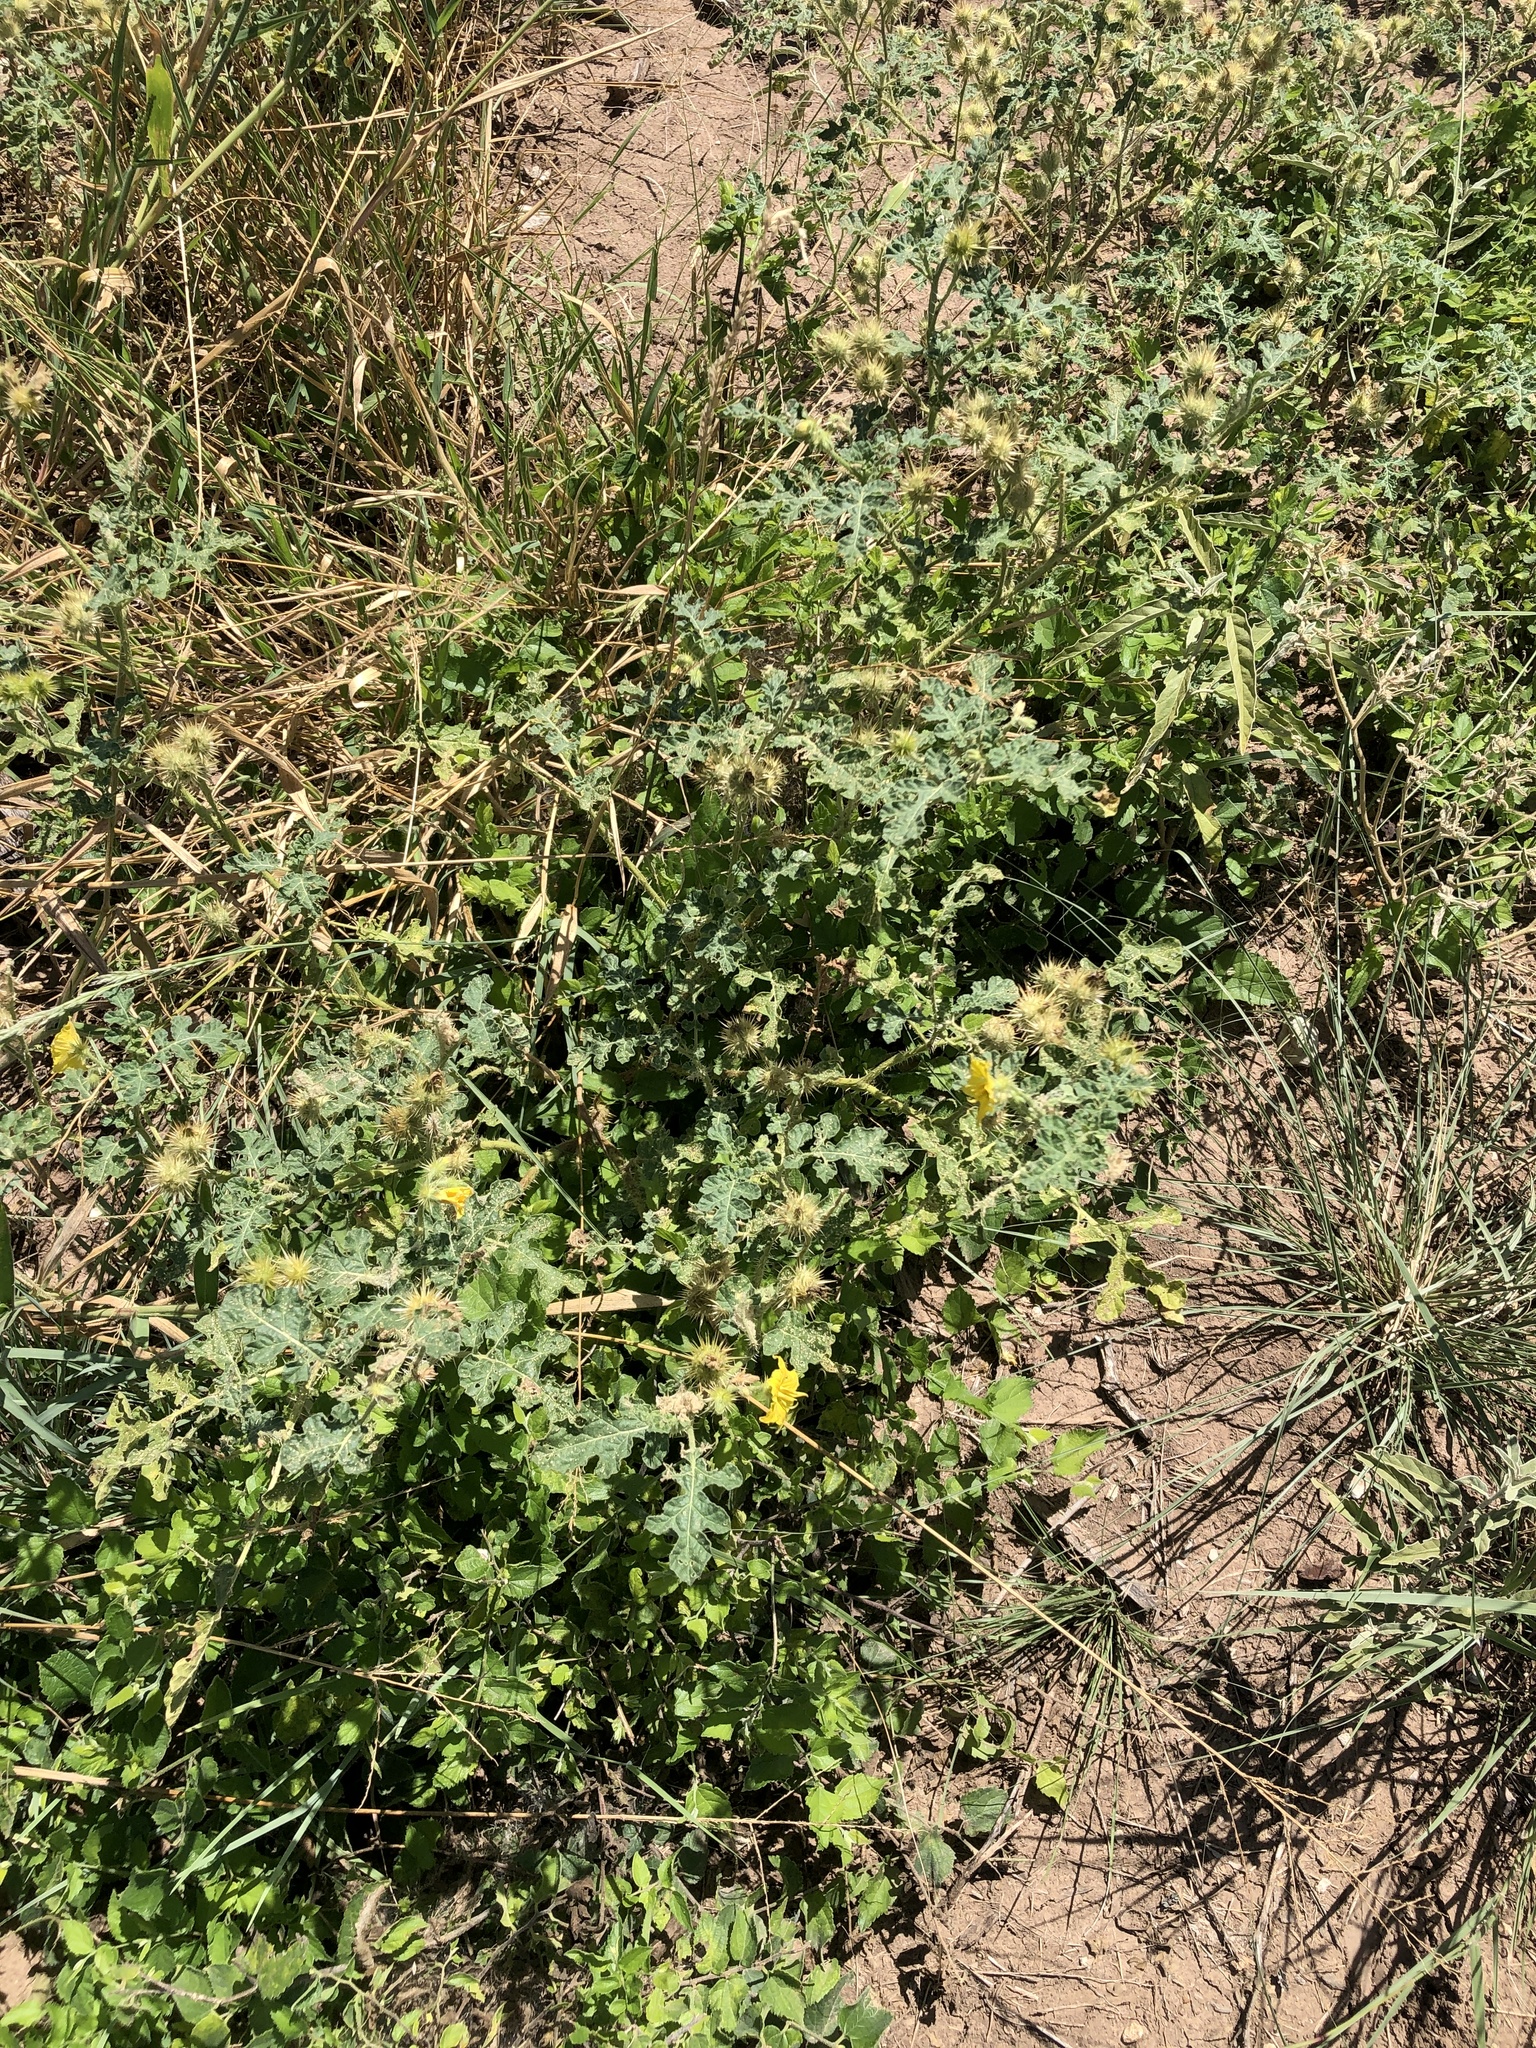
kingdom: Plantae
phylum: Tracheophyta
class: Magnoliopsida
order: Solanales
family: Solanaceae
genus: Solanum
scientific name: Solanum angustifolium
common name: Buffalobur nightshade
